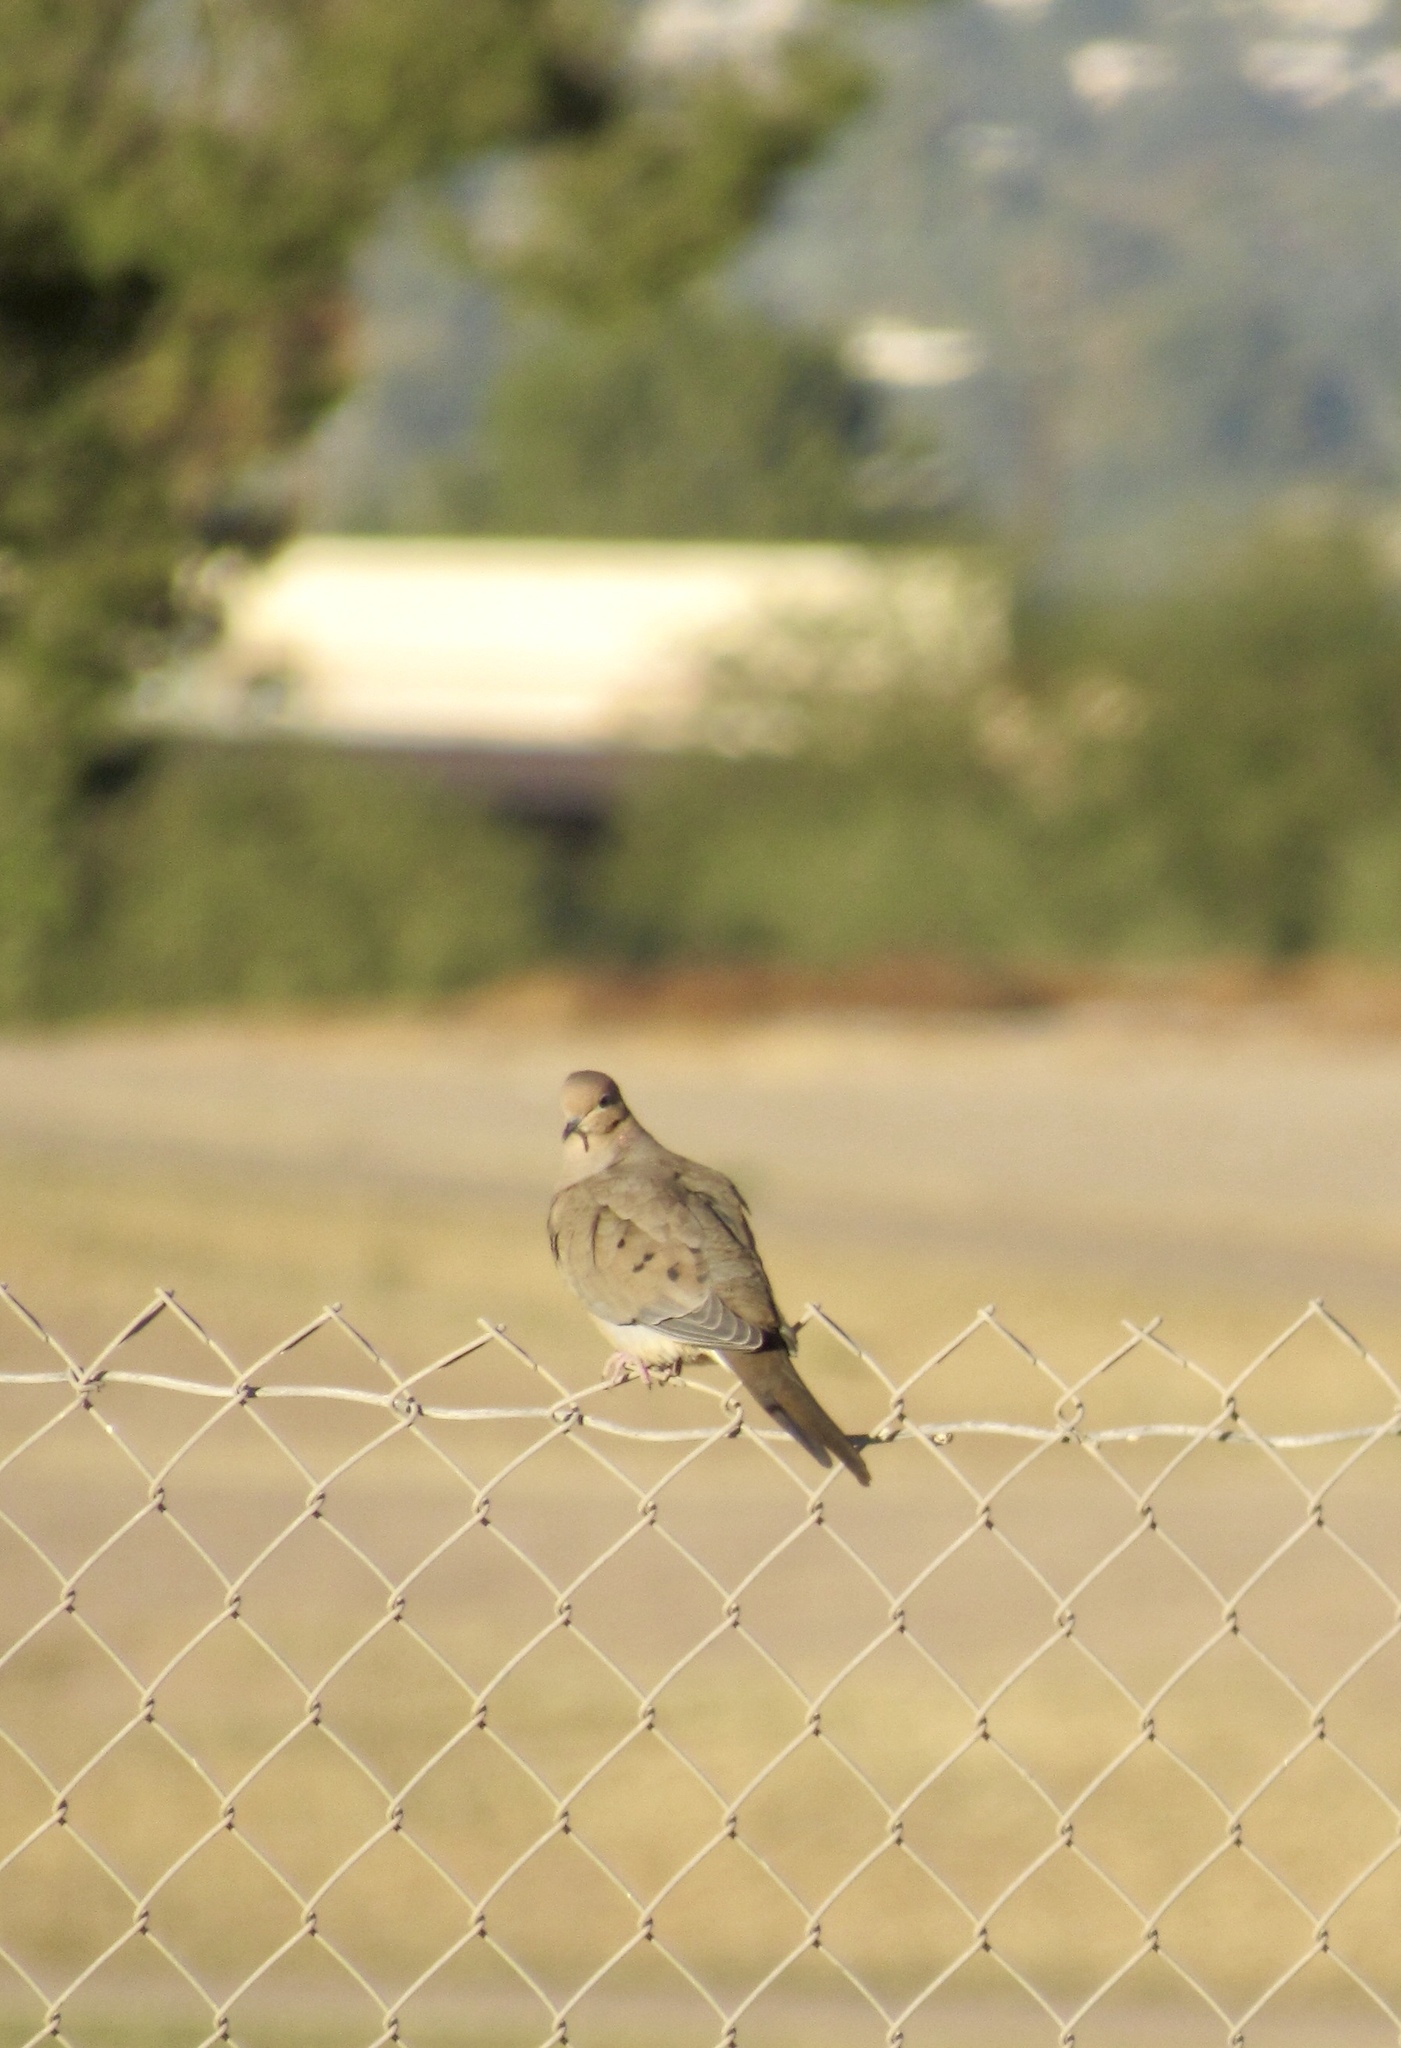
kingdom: Animalia
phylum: Chordata
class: Aves
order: Columbiformes
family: Columbidae
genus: Zenaida
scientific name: Zenaida macroura
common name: Mourning dove
